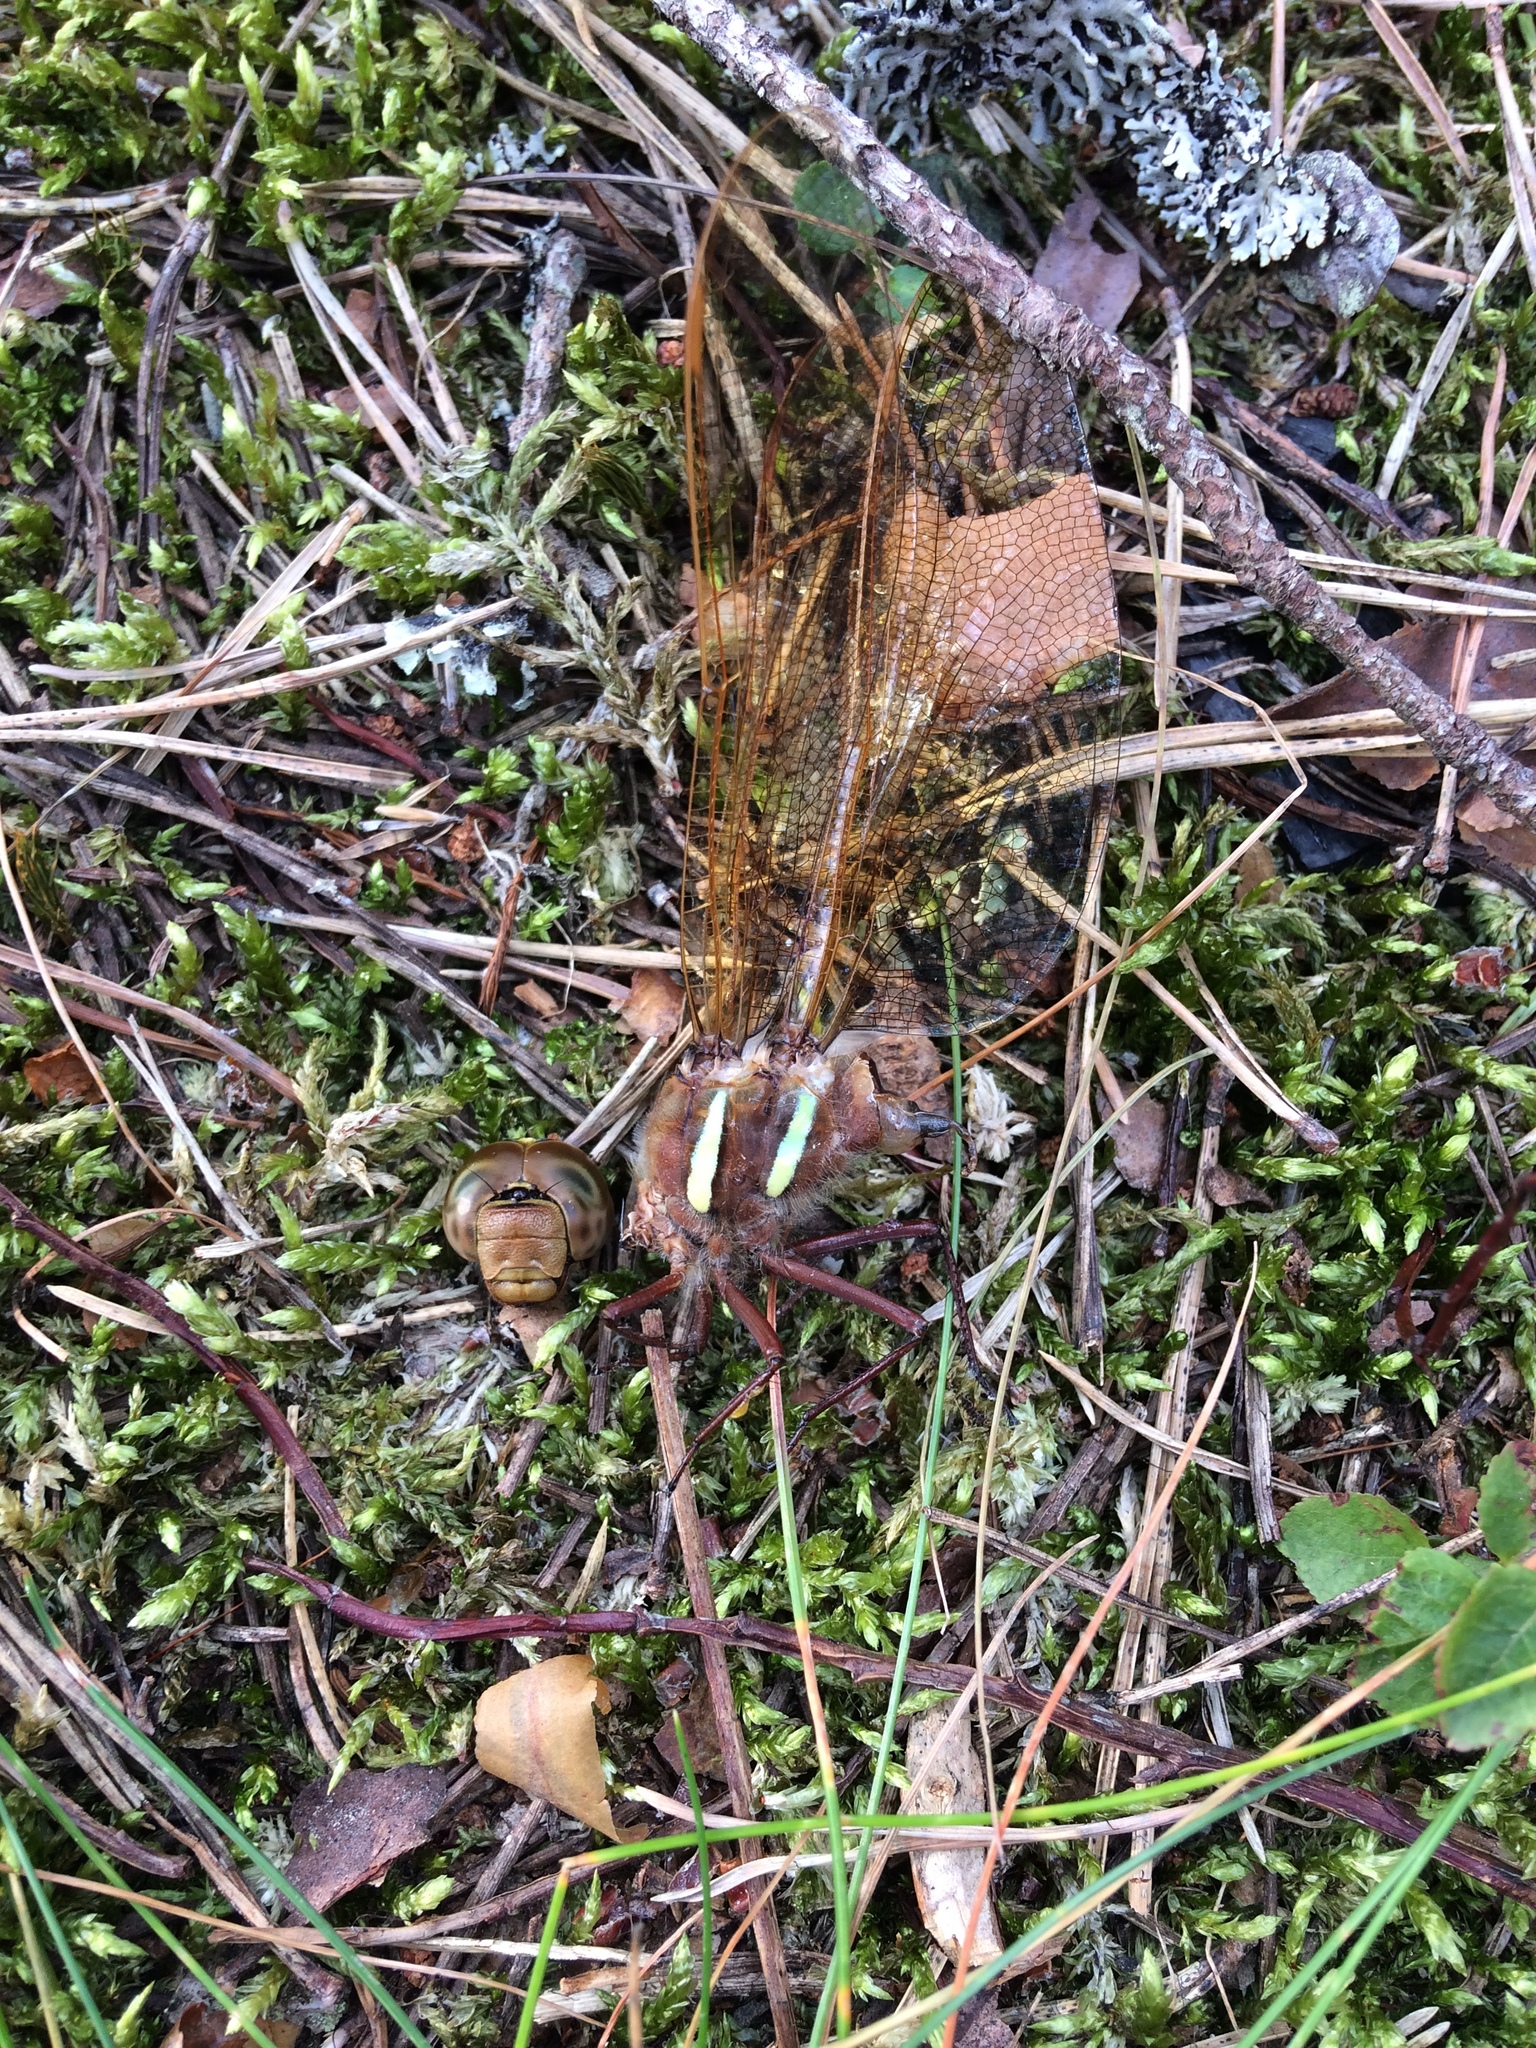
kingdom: Animalia
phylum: Arthropoda
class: Insecta
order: Odonata
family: Aeshnidae
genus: Aeshna
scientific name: Aeshna grandis
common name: Brown hawker
